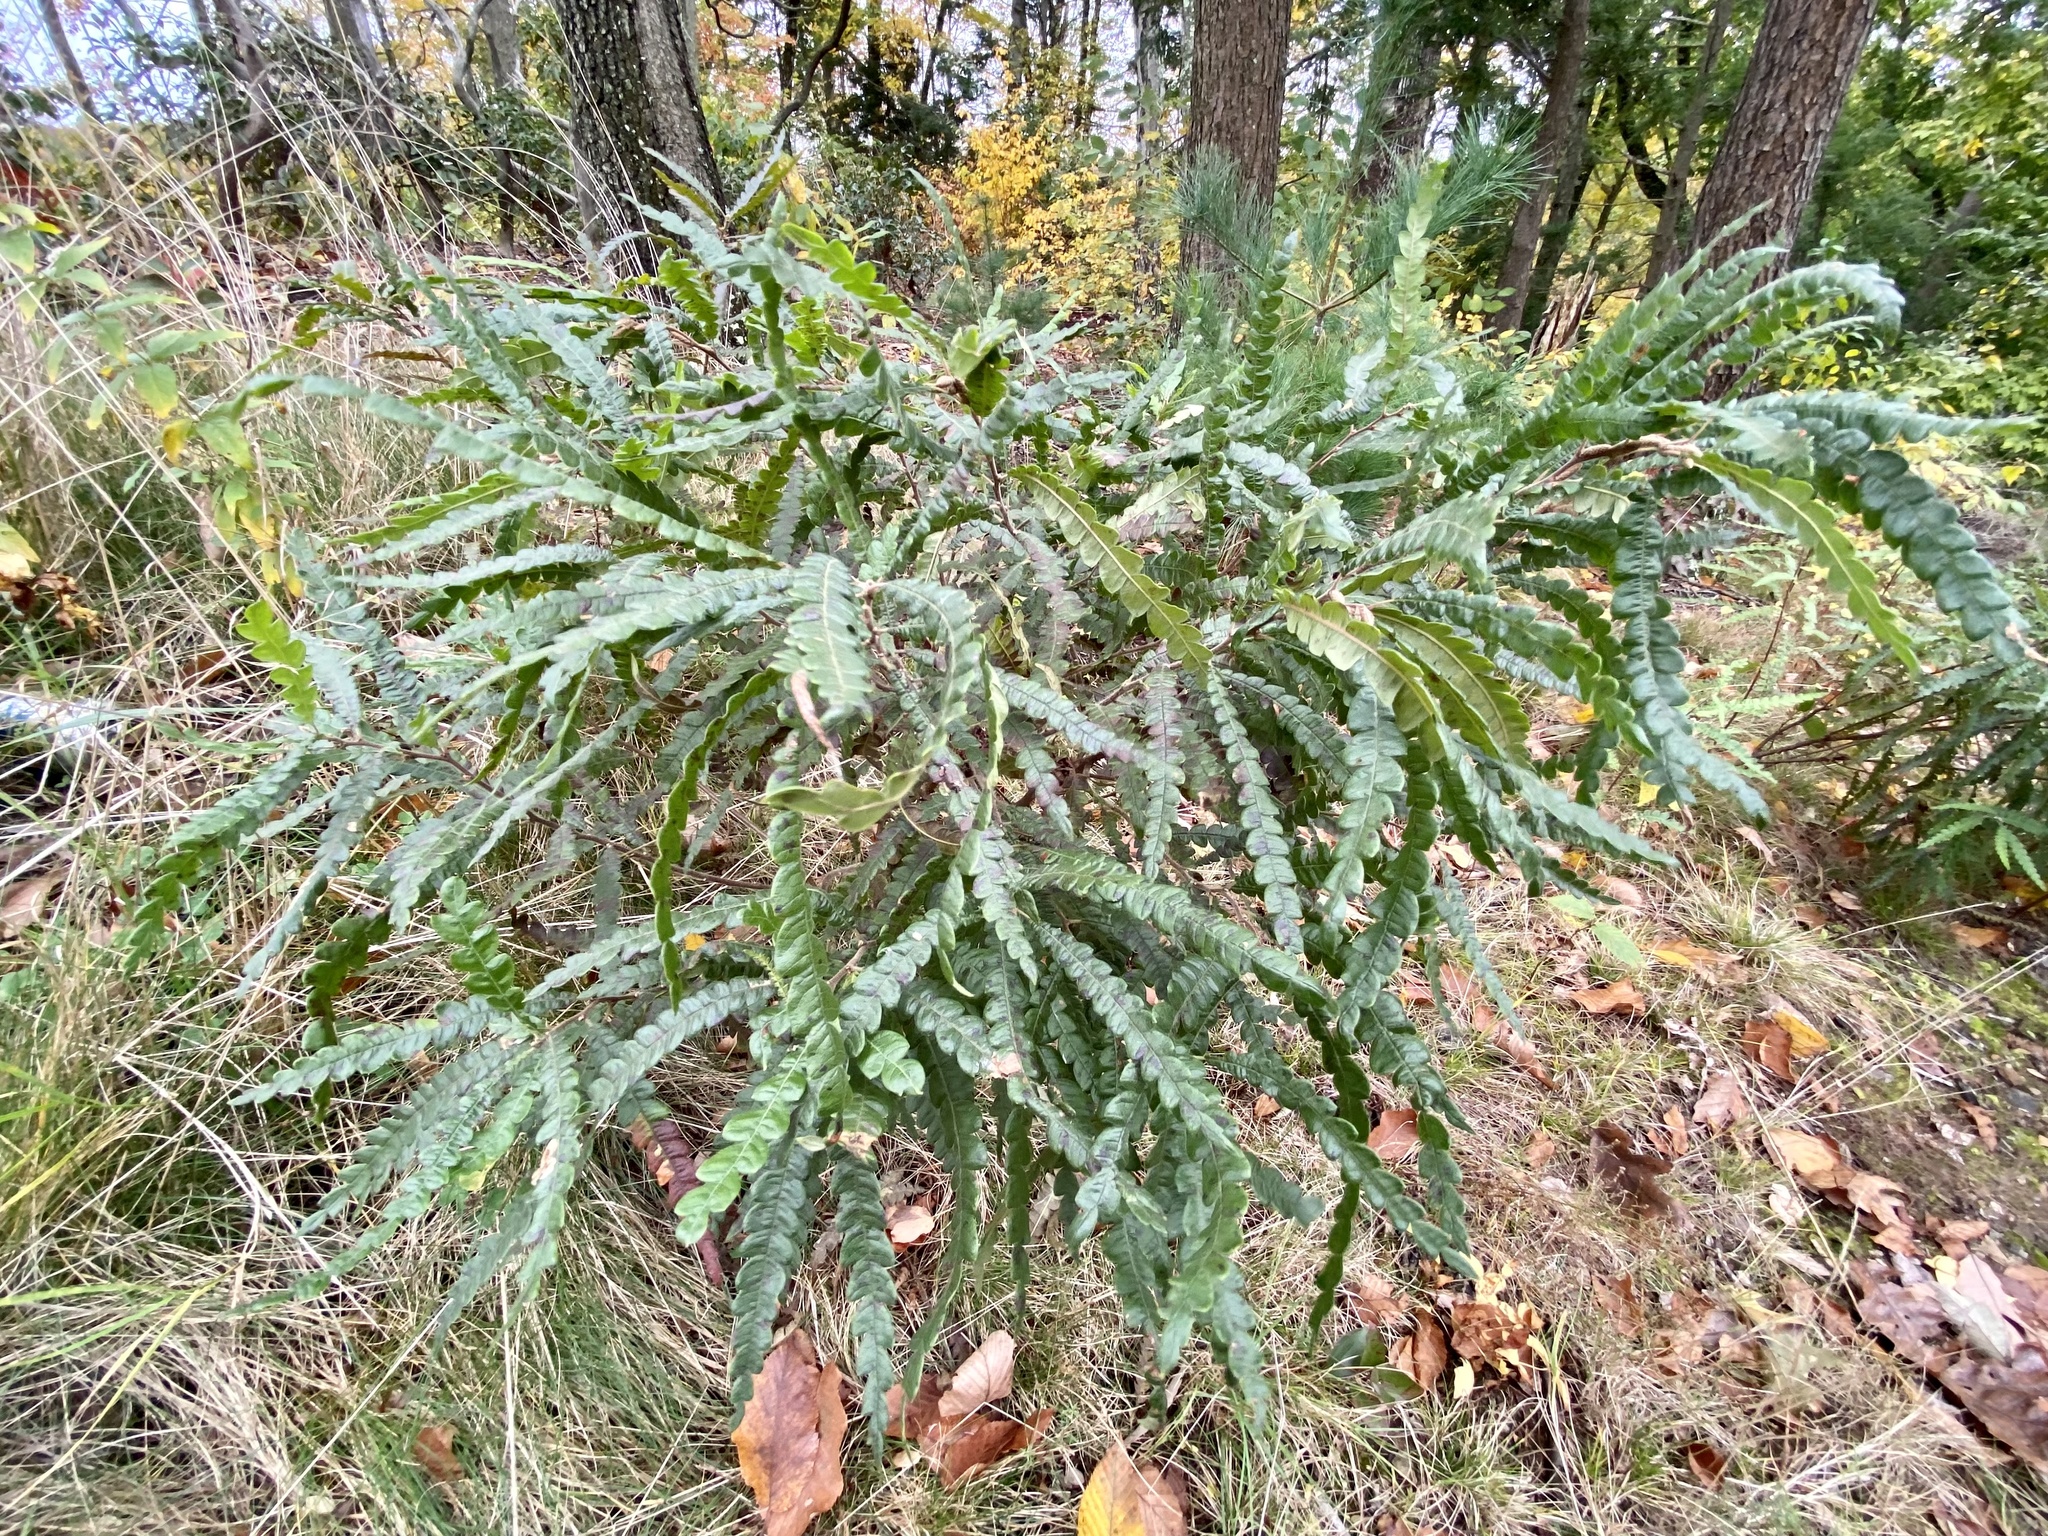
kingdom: Plantae
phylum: Tracheophyta
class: Magnoliopsida
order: Fagales
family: Myricaceae
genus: Comptonia
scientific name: Comptonia peregrina
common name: Sweet-fern
